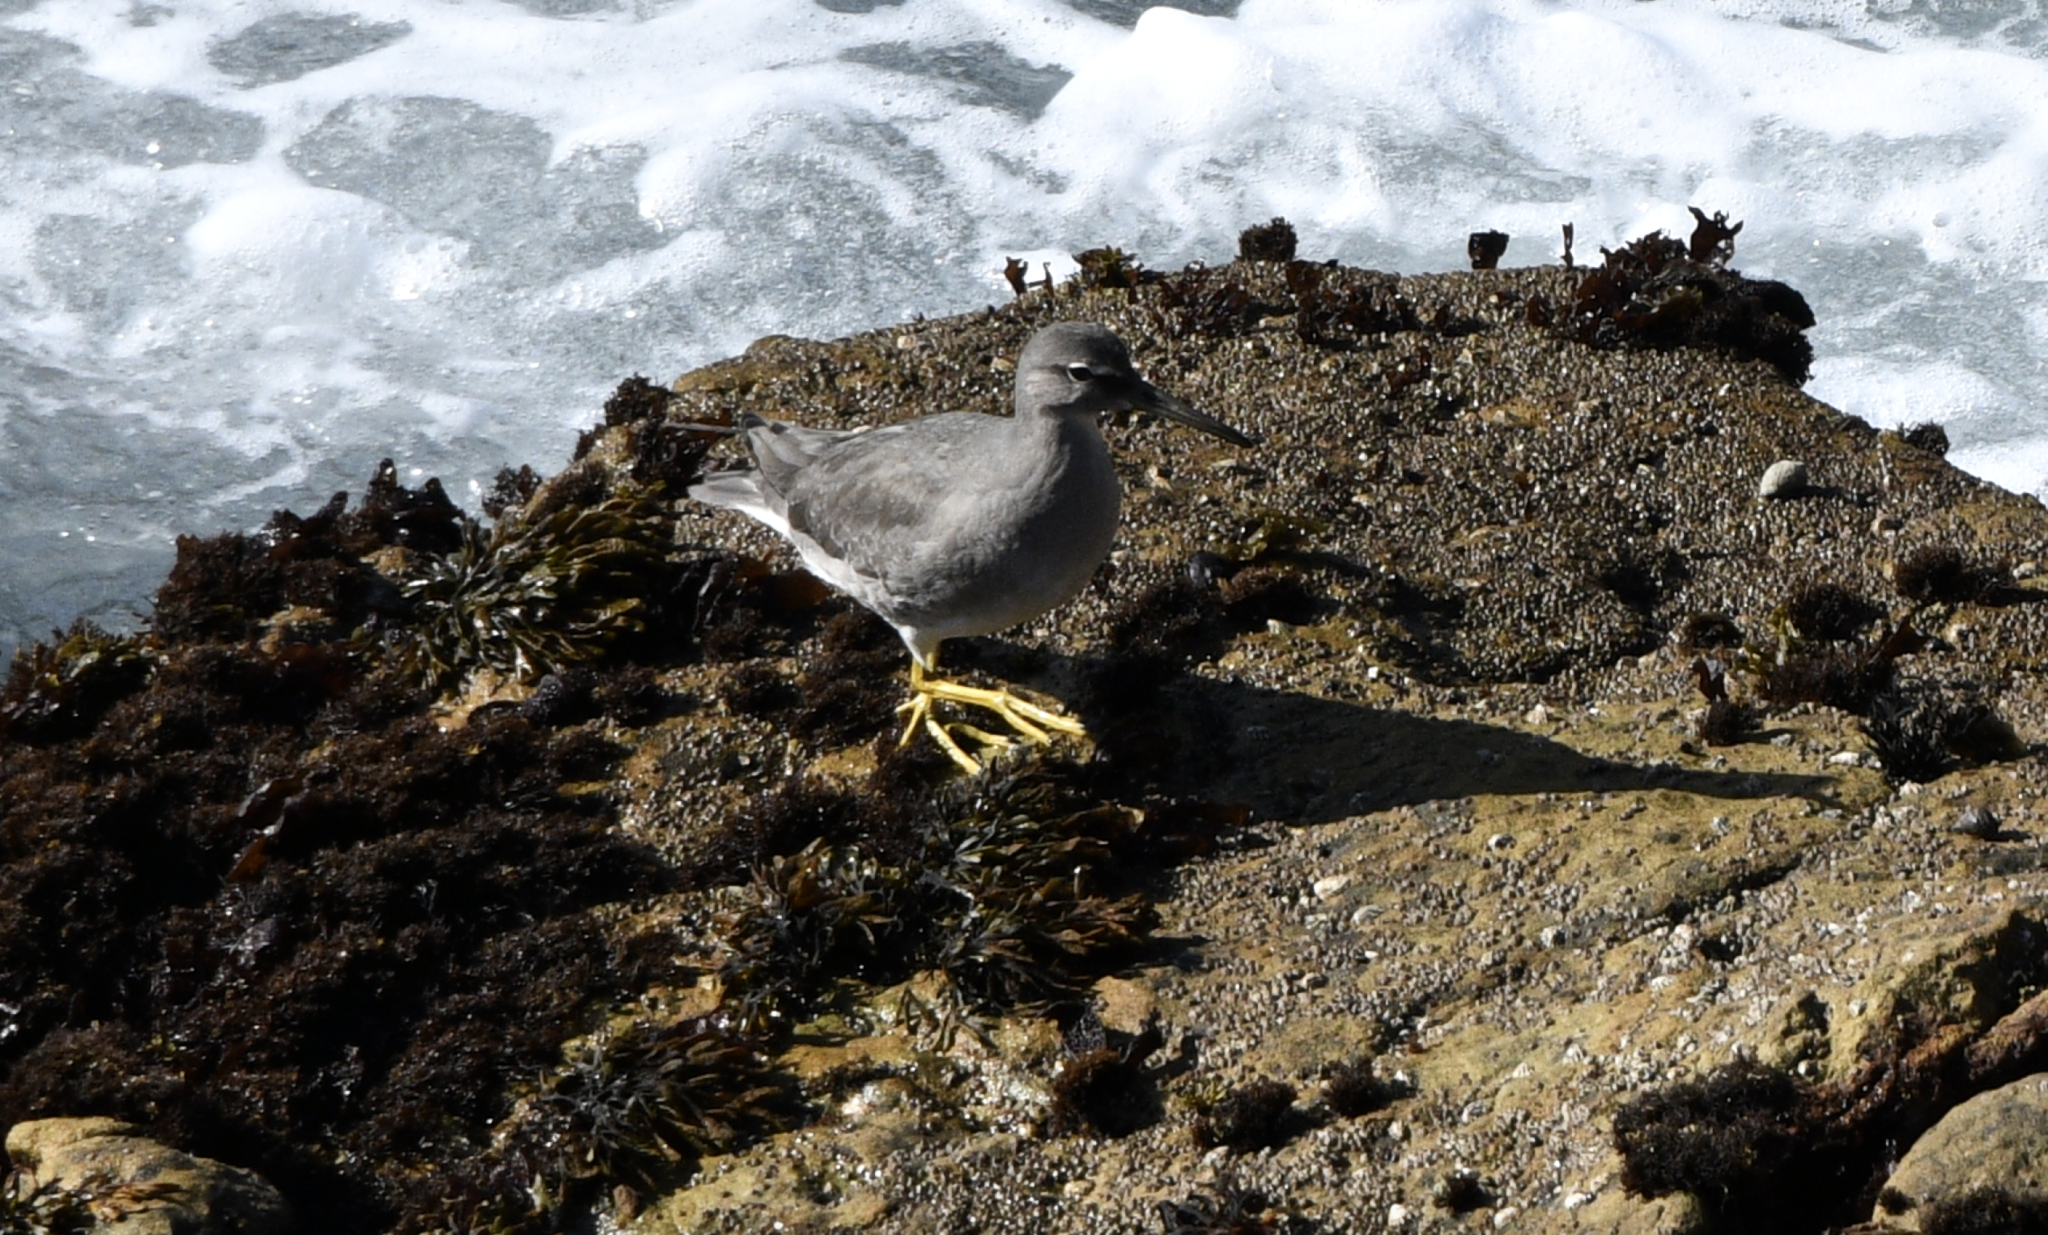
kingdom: Animalia
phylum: Chordata
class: Aves
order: Charadriiformes
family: Scolopacidae
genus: Tringa
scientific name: Tringa incana
